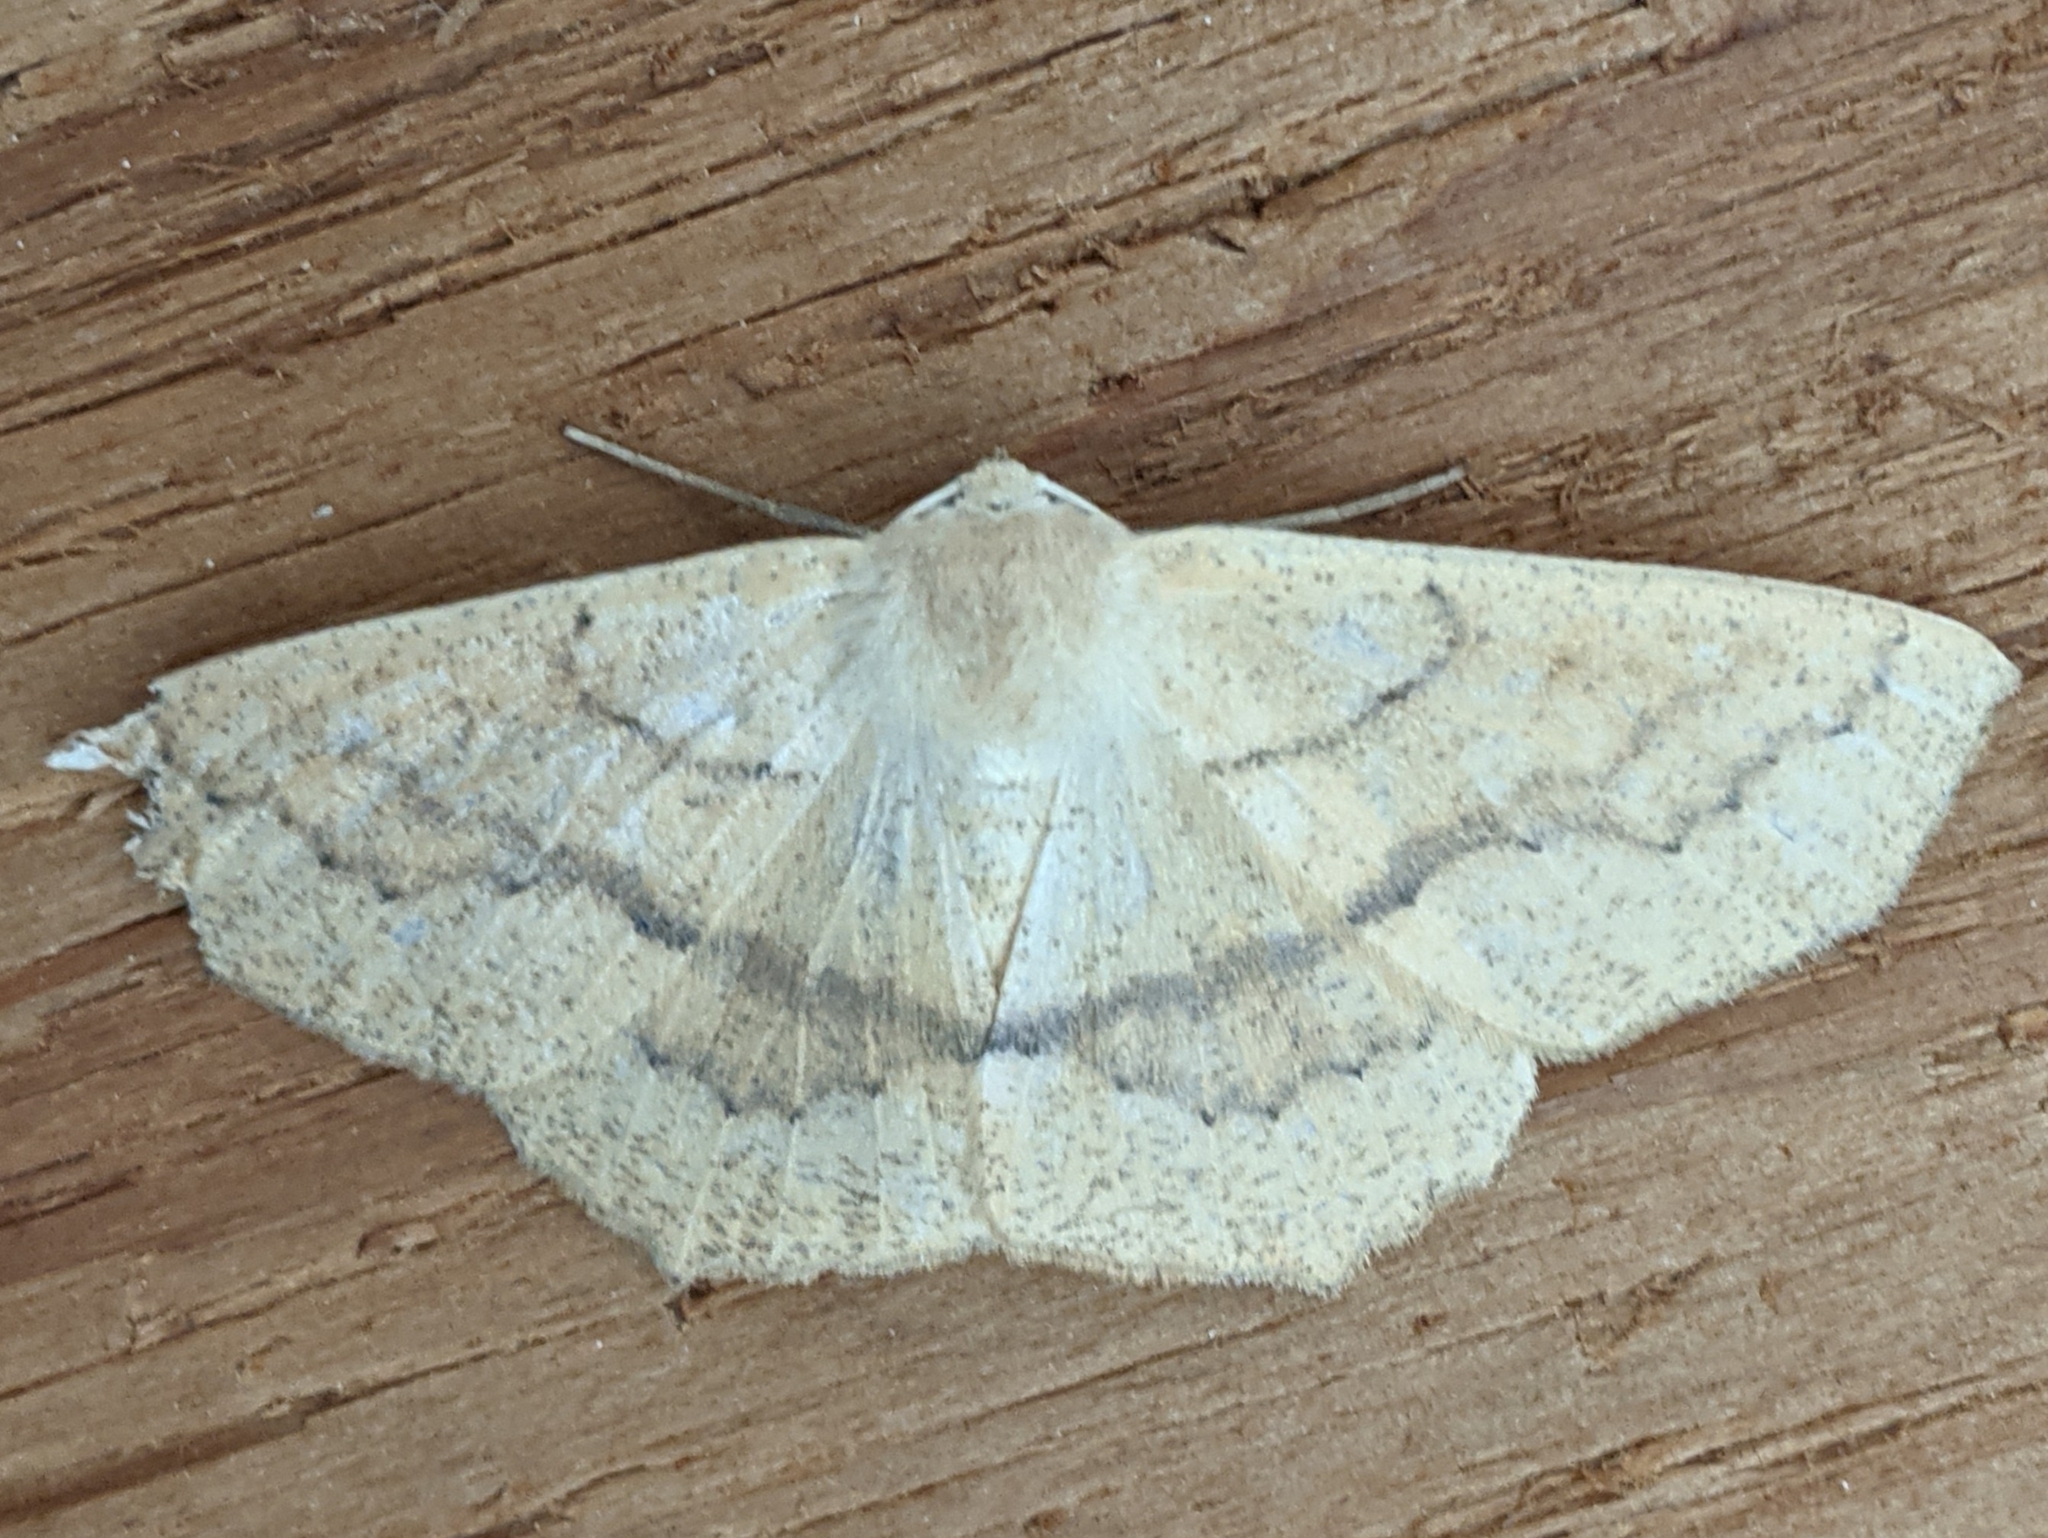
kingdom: Animalia
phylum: Arthropoda
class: Insecta
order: Lepidoptera
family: Geometridae
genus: Sabulodes
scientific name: Sabulodes aegrotata
